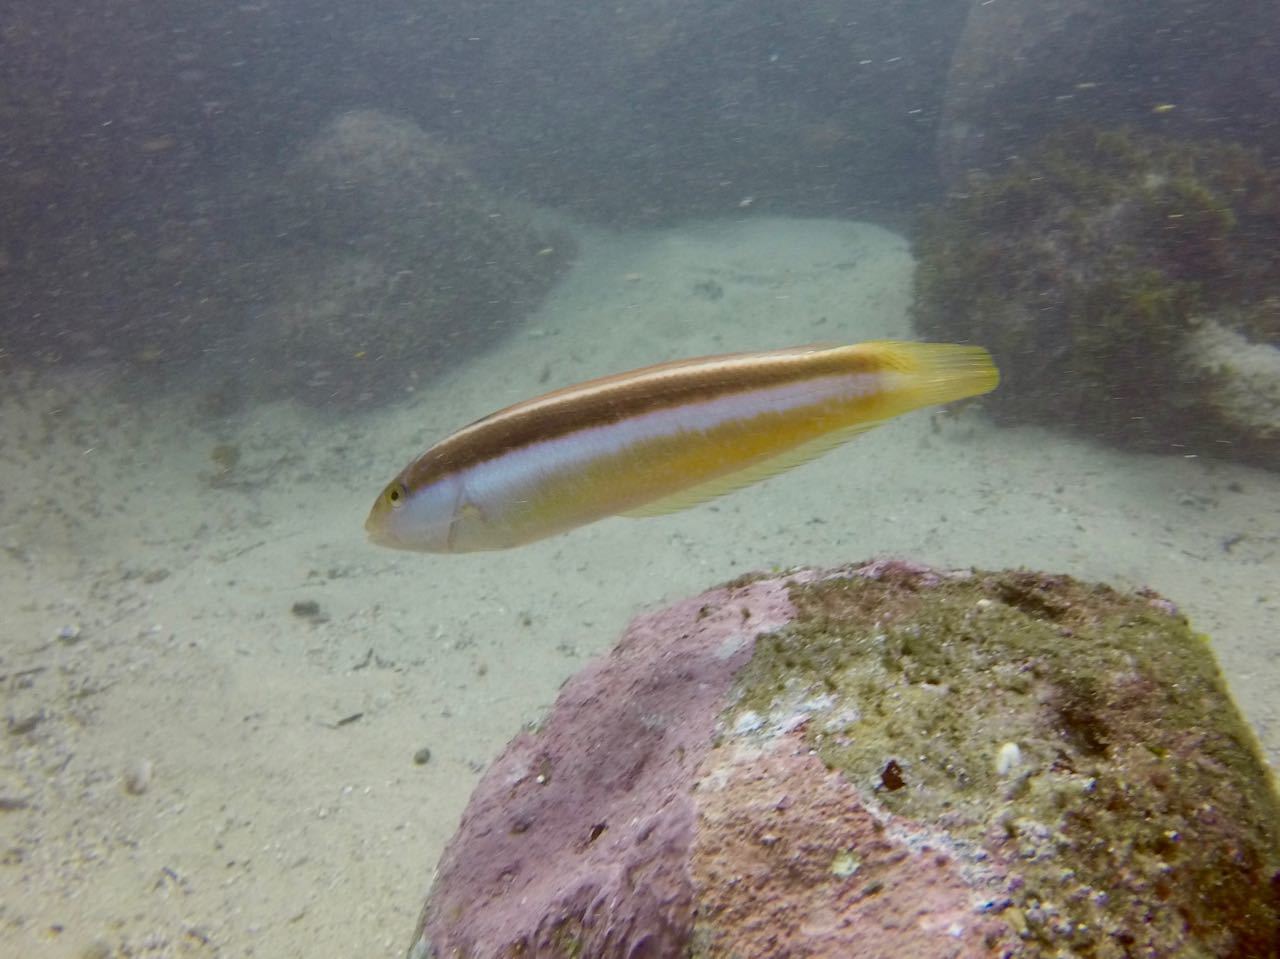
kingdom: Animalia
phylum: Chordata
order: Perciformes
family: Labridae
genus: Ophthalmolepis
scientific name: Ophthalmolepis lineolata
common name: Maori wrasse
